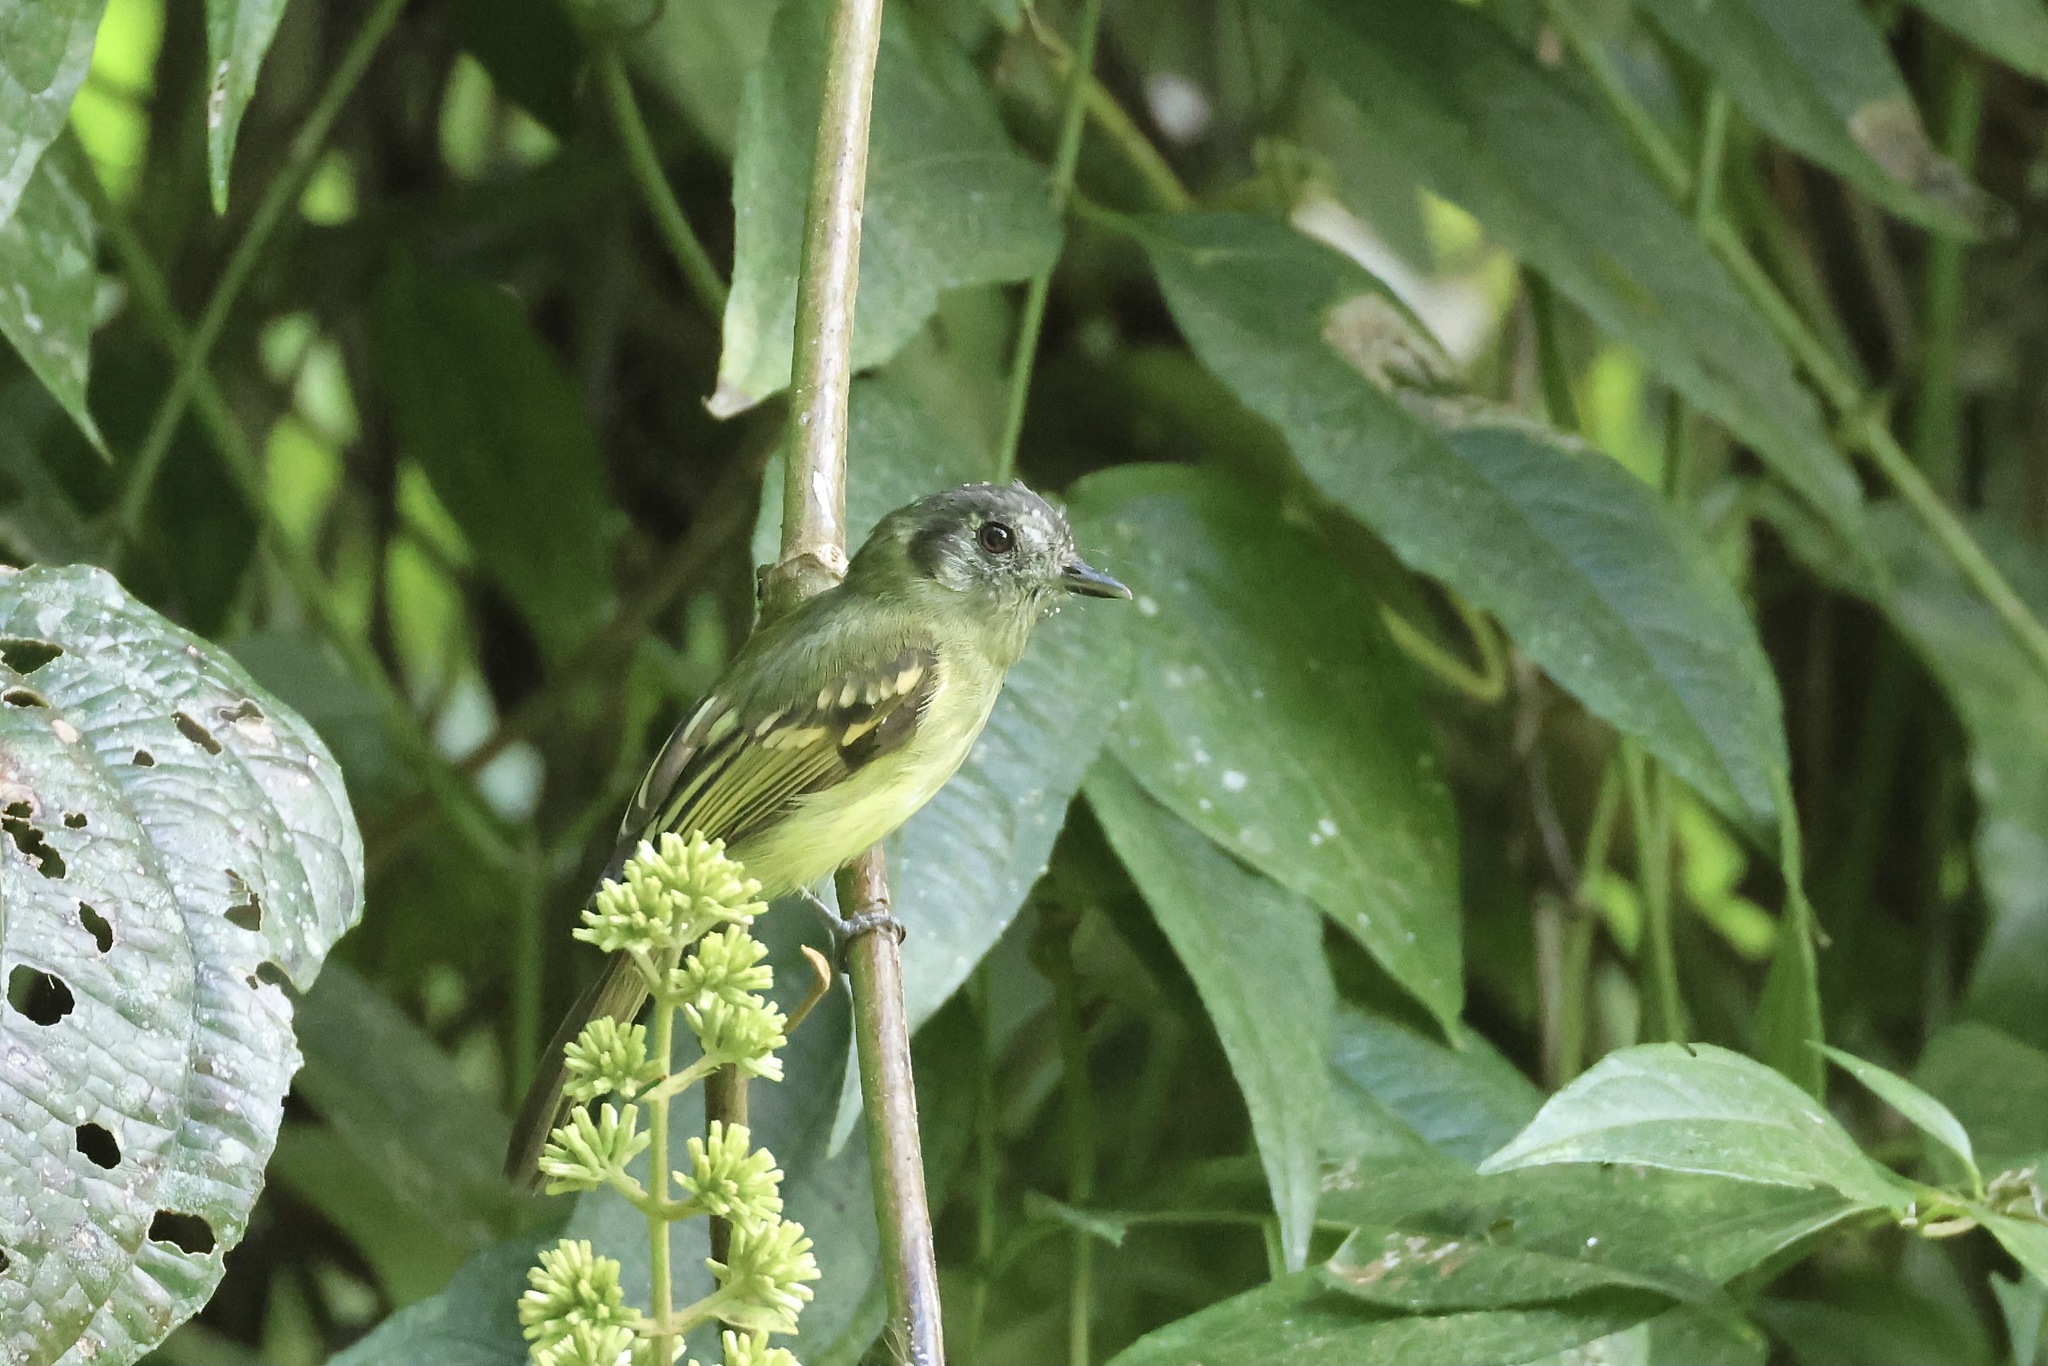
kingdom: Animalia
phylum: Chordata
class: Aves
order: Passeriformes
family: Tyrannidae
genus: Leptopogon
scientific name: Leptopogon superciliaris
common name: Slaty-capped flycatcher
